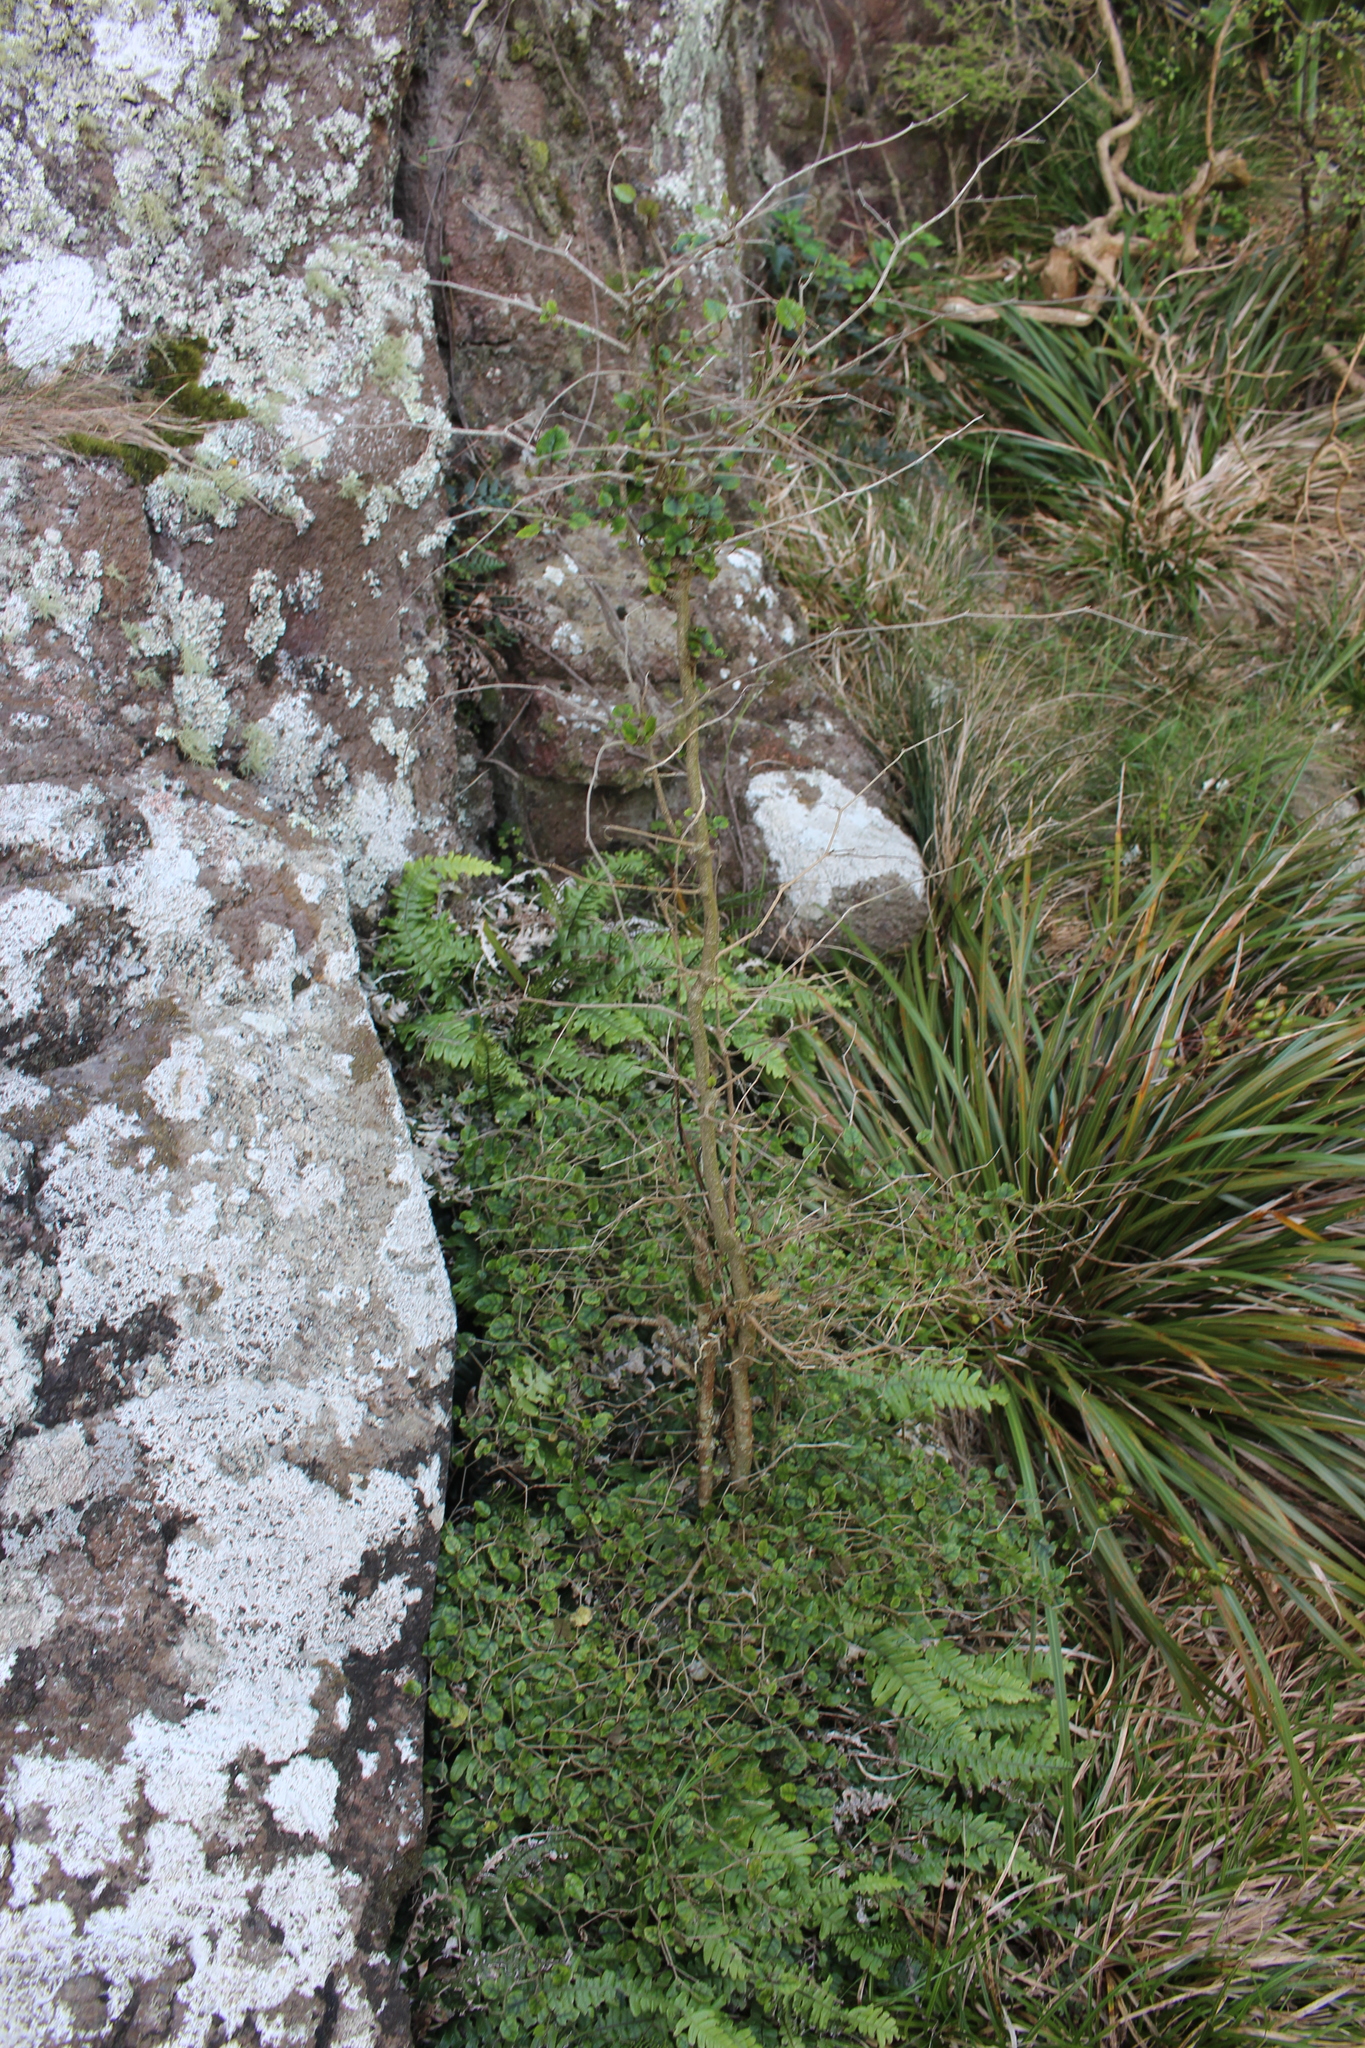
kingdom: Plantae
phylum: Tracheophyta
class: Magnoliopsida
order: Asterales
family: Rousseaceae
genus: Carpodetus
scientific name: Carpodetus serratus
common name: White mapau
